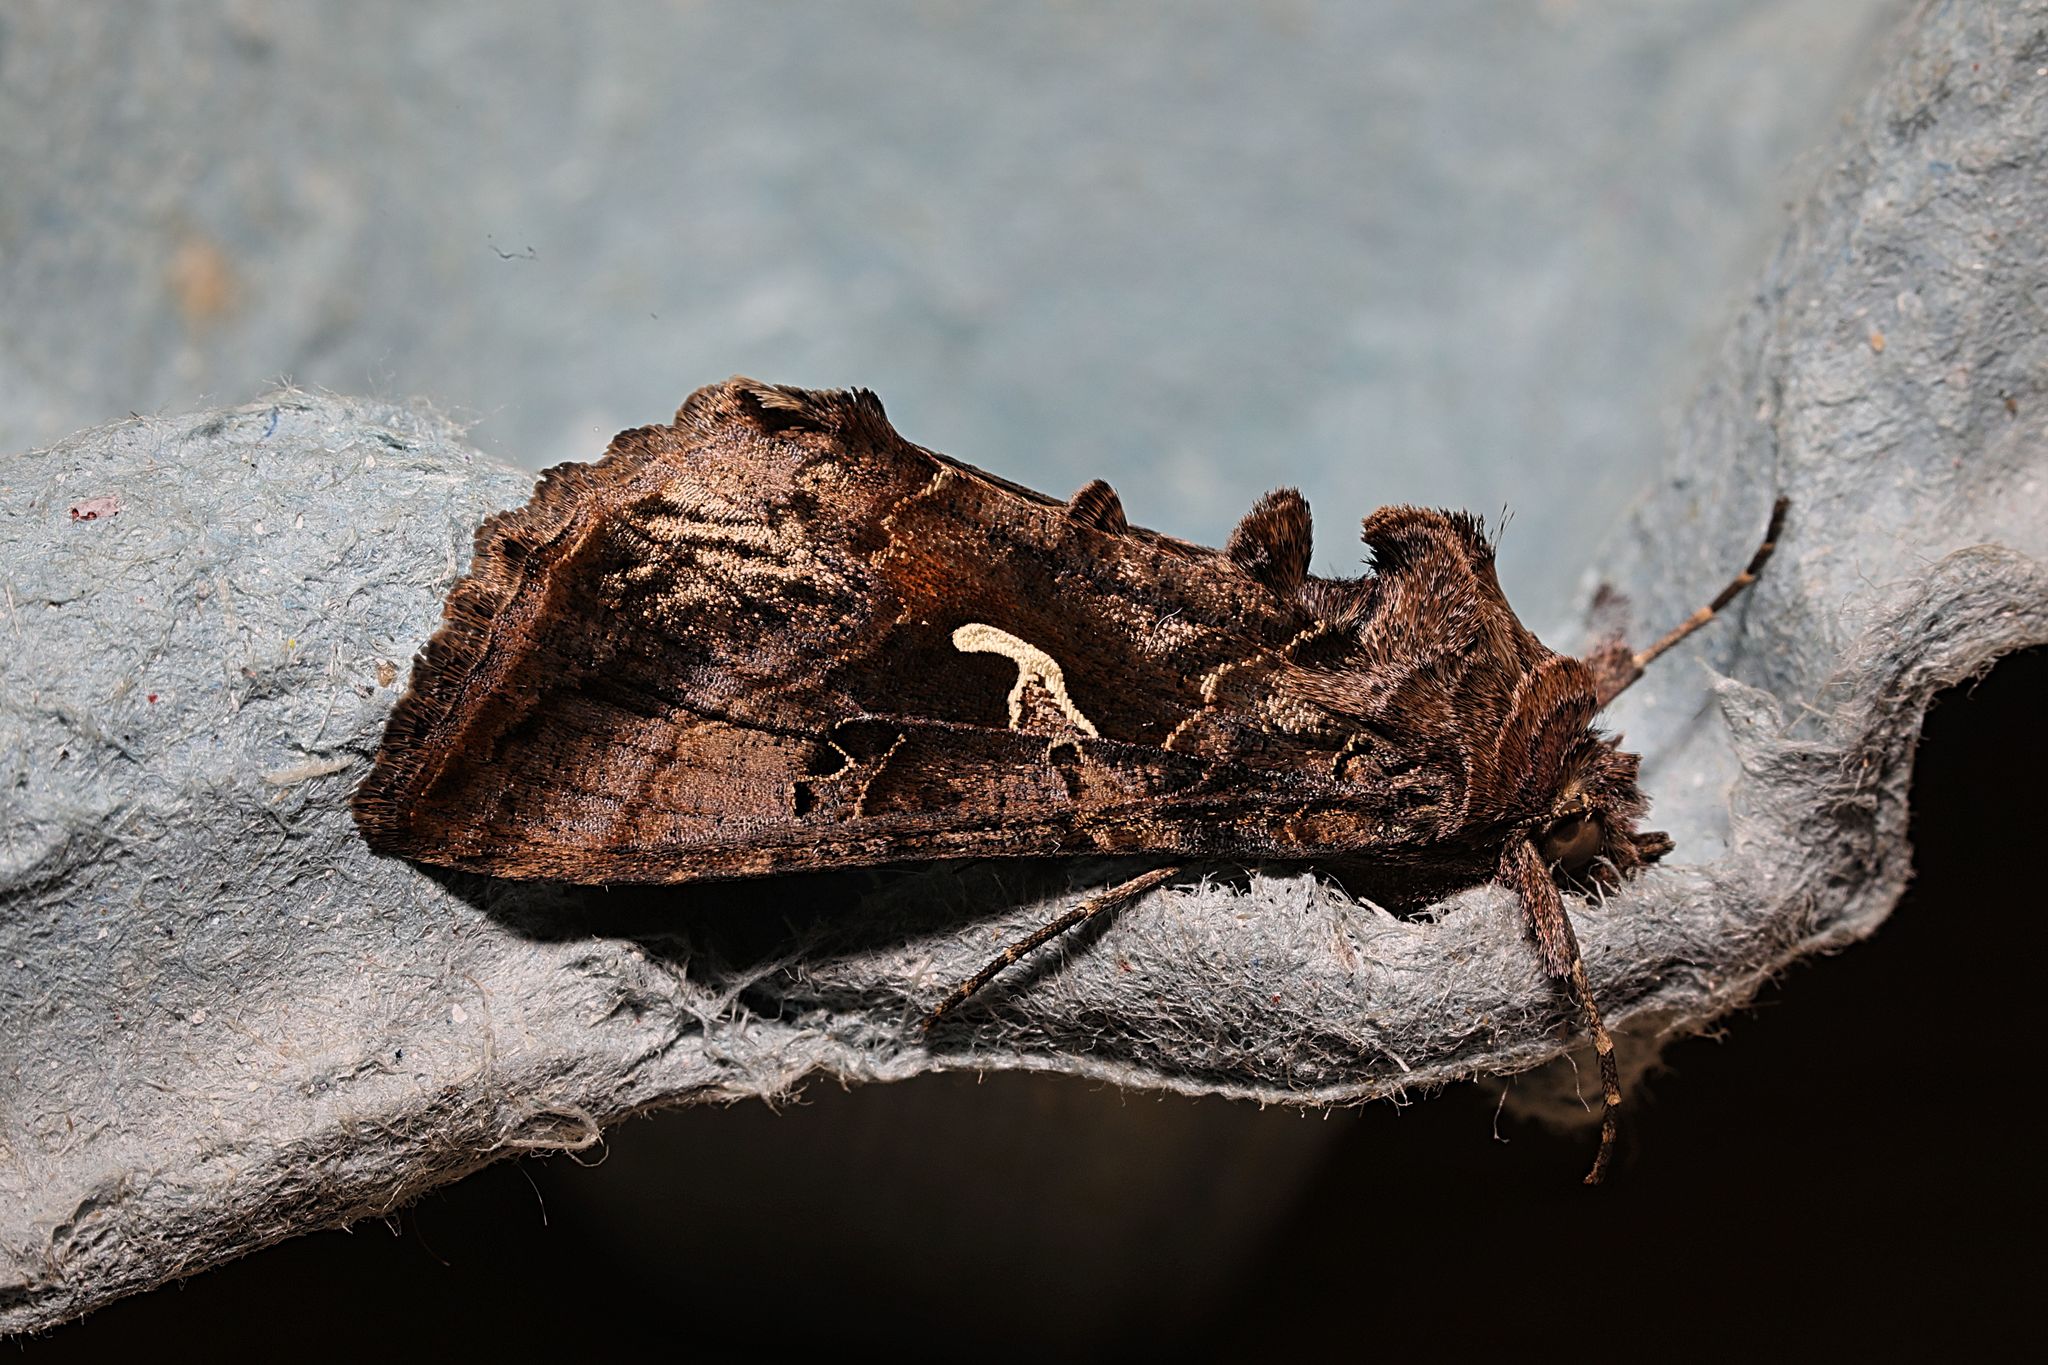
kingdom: Animalia
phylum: Arthropoda
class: Insecta
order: Lepidoptera
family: Noctuidae
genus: Autographa
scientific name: Autographa gamma
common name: Silver y
